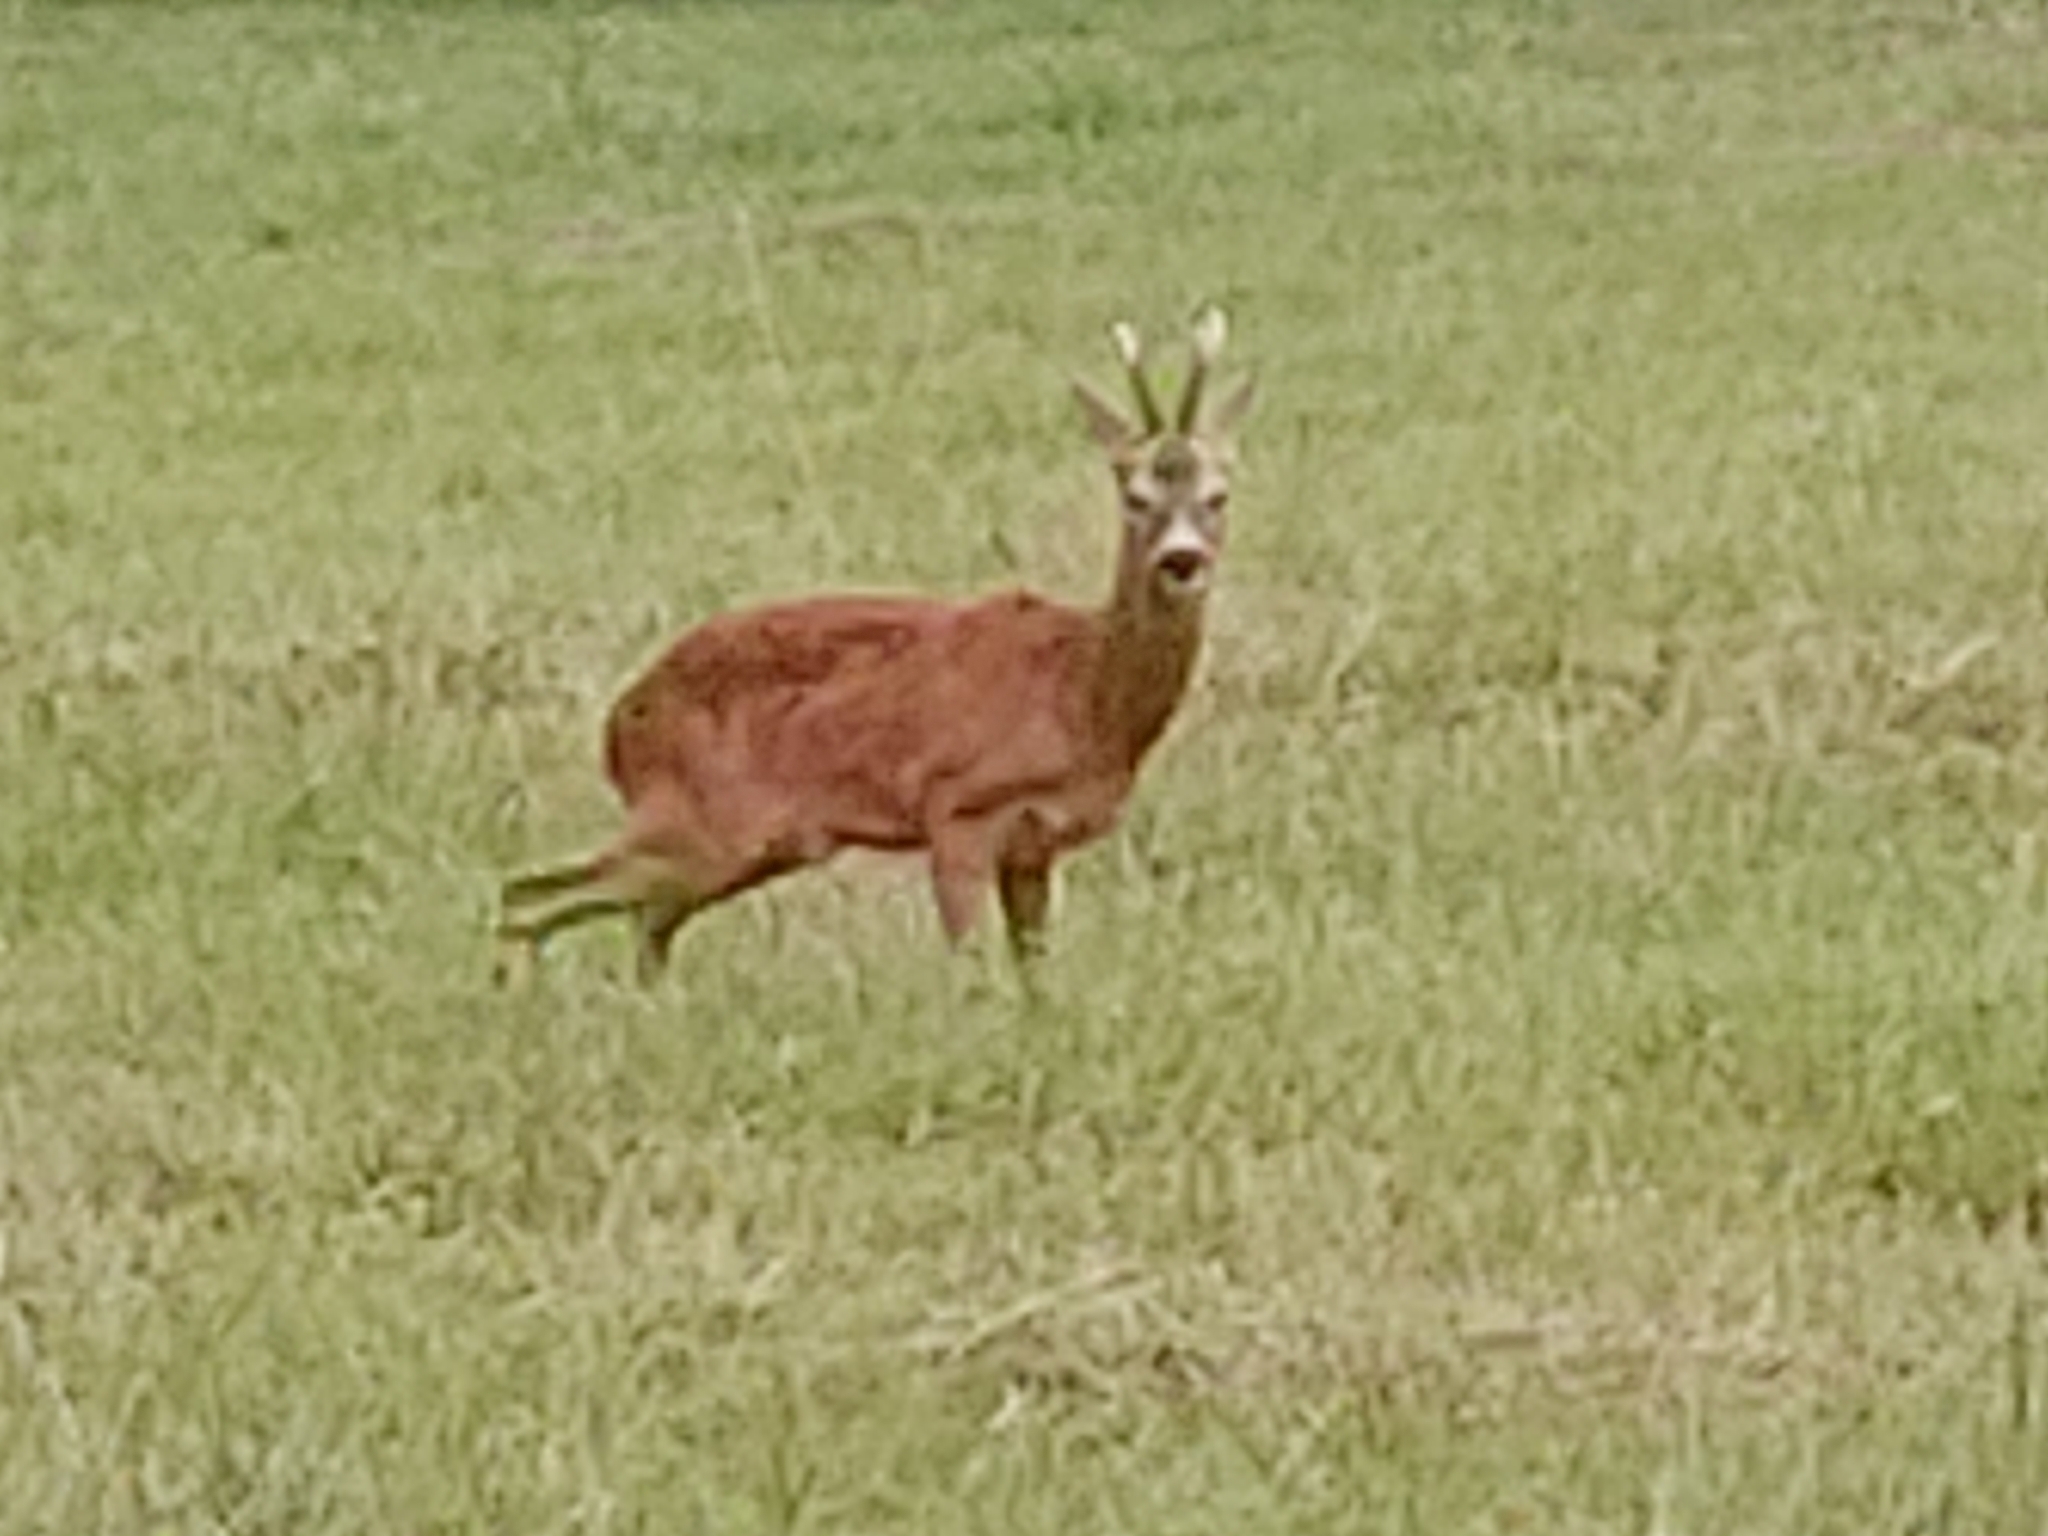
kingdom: Animalia
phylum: Chordata
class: Mammalia
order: Artiodactyla
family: Cervidae
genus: Capreolus
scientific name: Capreolus capreolus
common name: Western roe deer
